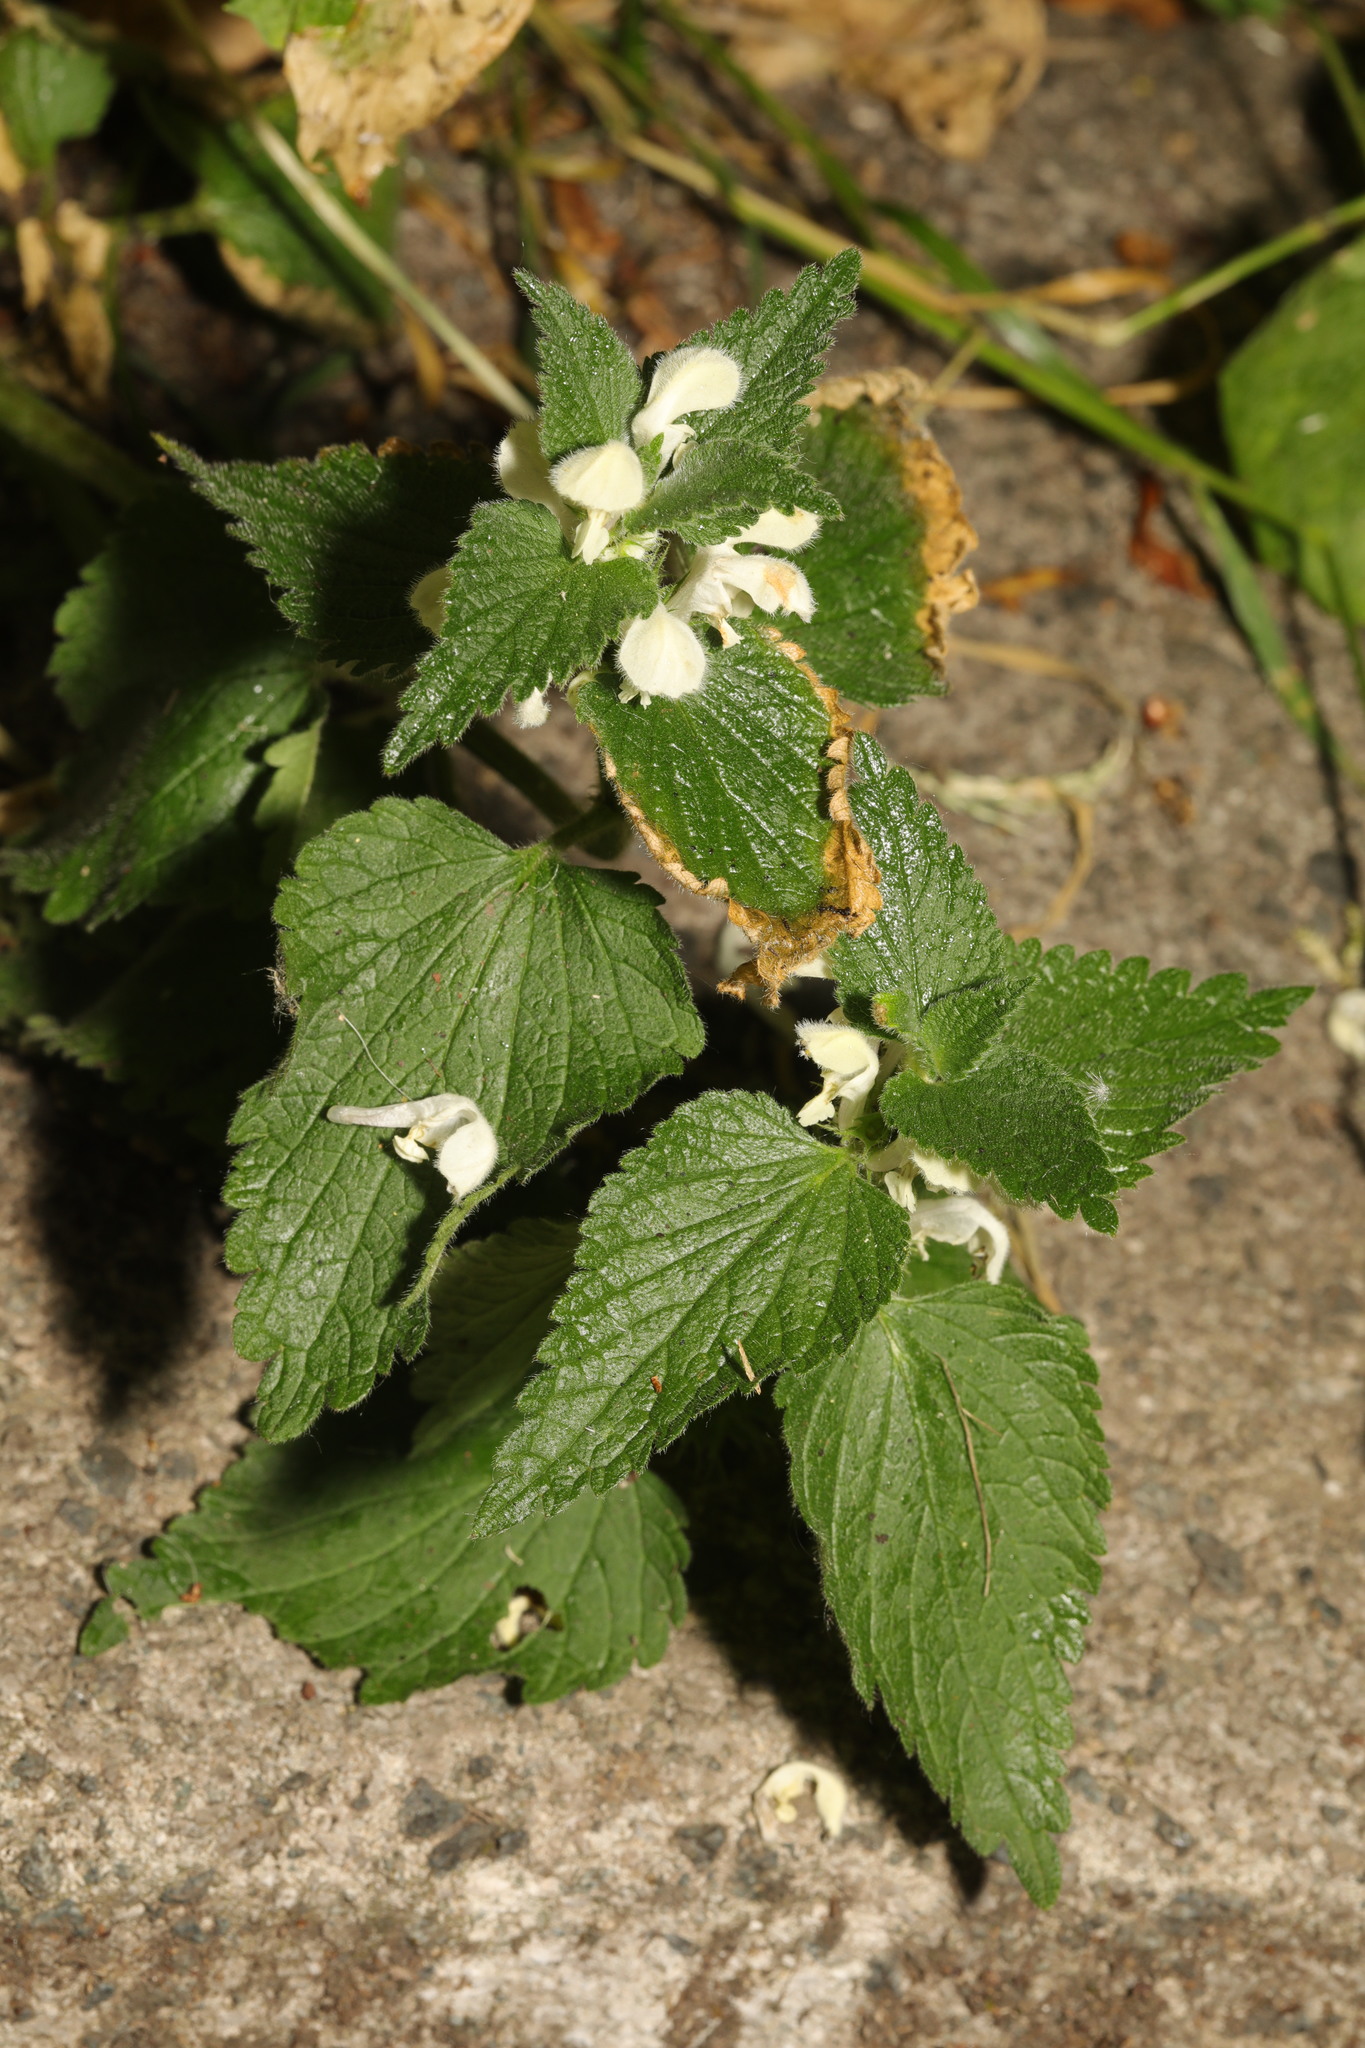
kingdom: Plantae
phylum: Tracheophyta
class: Magnoliopsida
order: Lamiales
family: Lamiaceae
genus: Lamium
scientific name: Lamium album
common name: White dead-nettle
